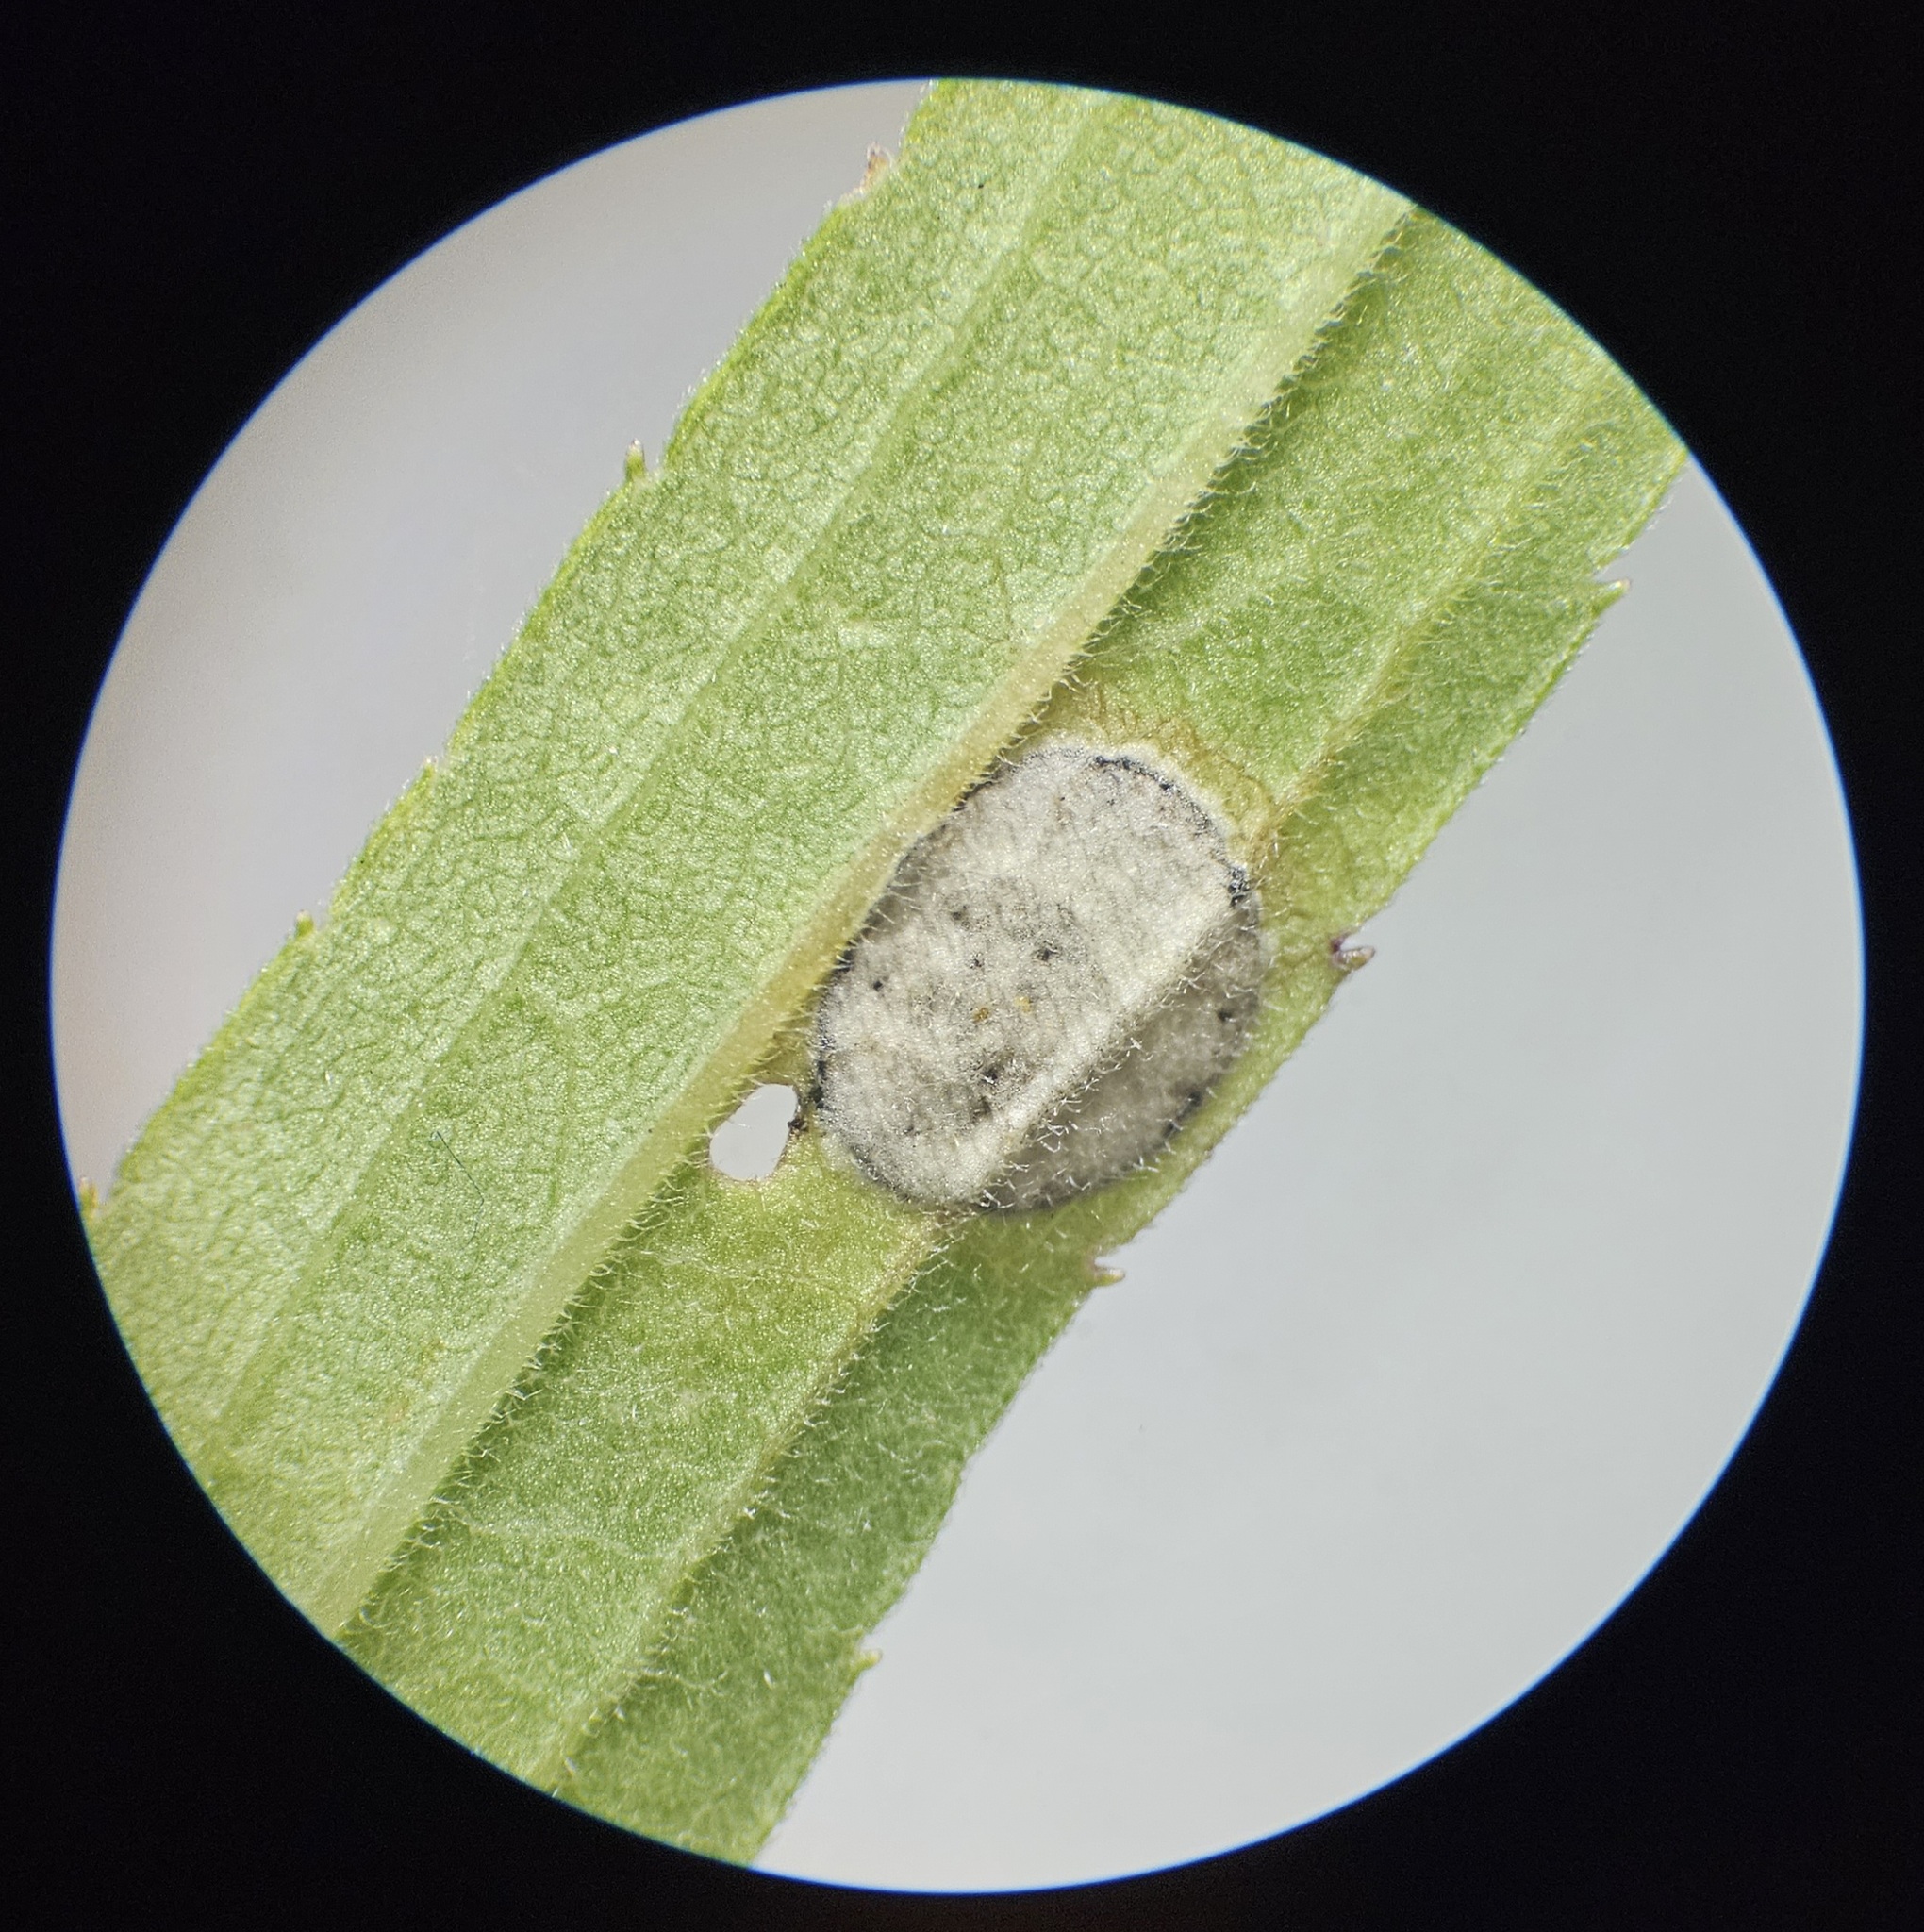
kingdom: Animalia
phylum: Arthropoda
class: Insecta
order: Diptera
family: Cecidomyiidae
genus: Asteromyia
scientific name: Asteromyia carbonifera
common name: Carbonifera goldenrod gall midge
